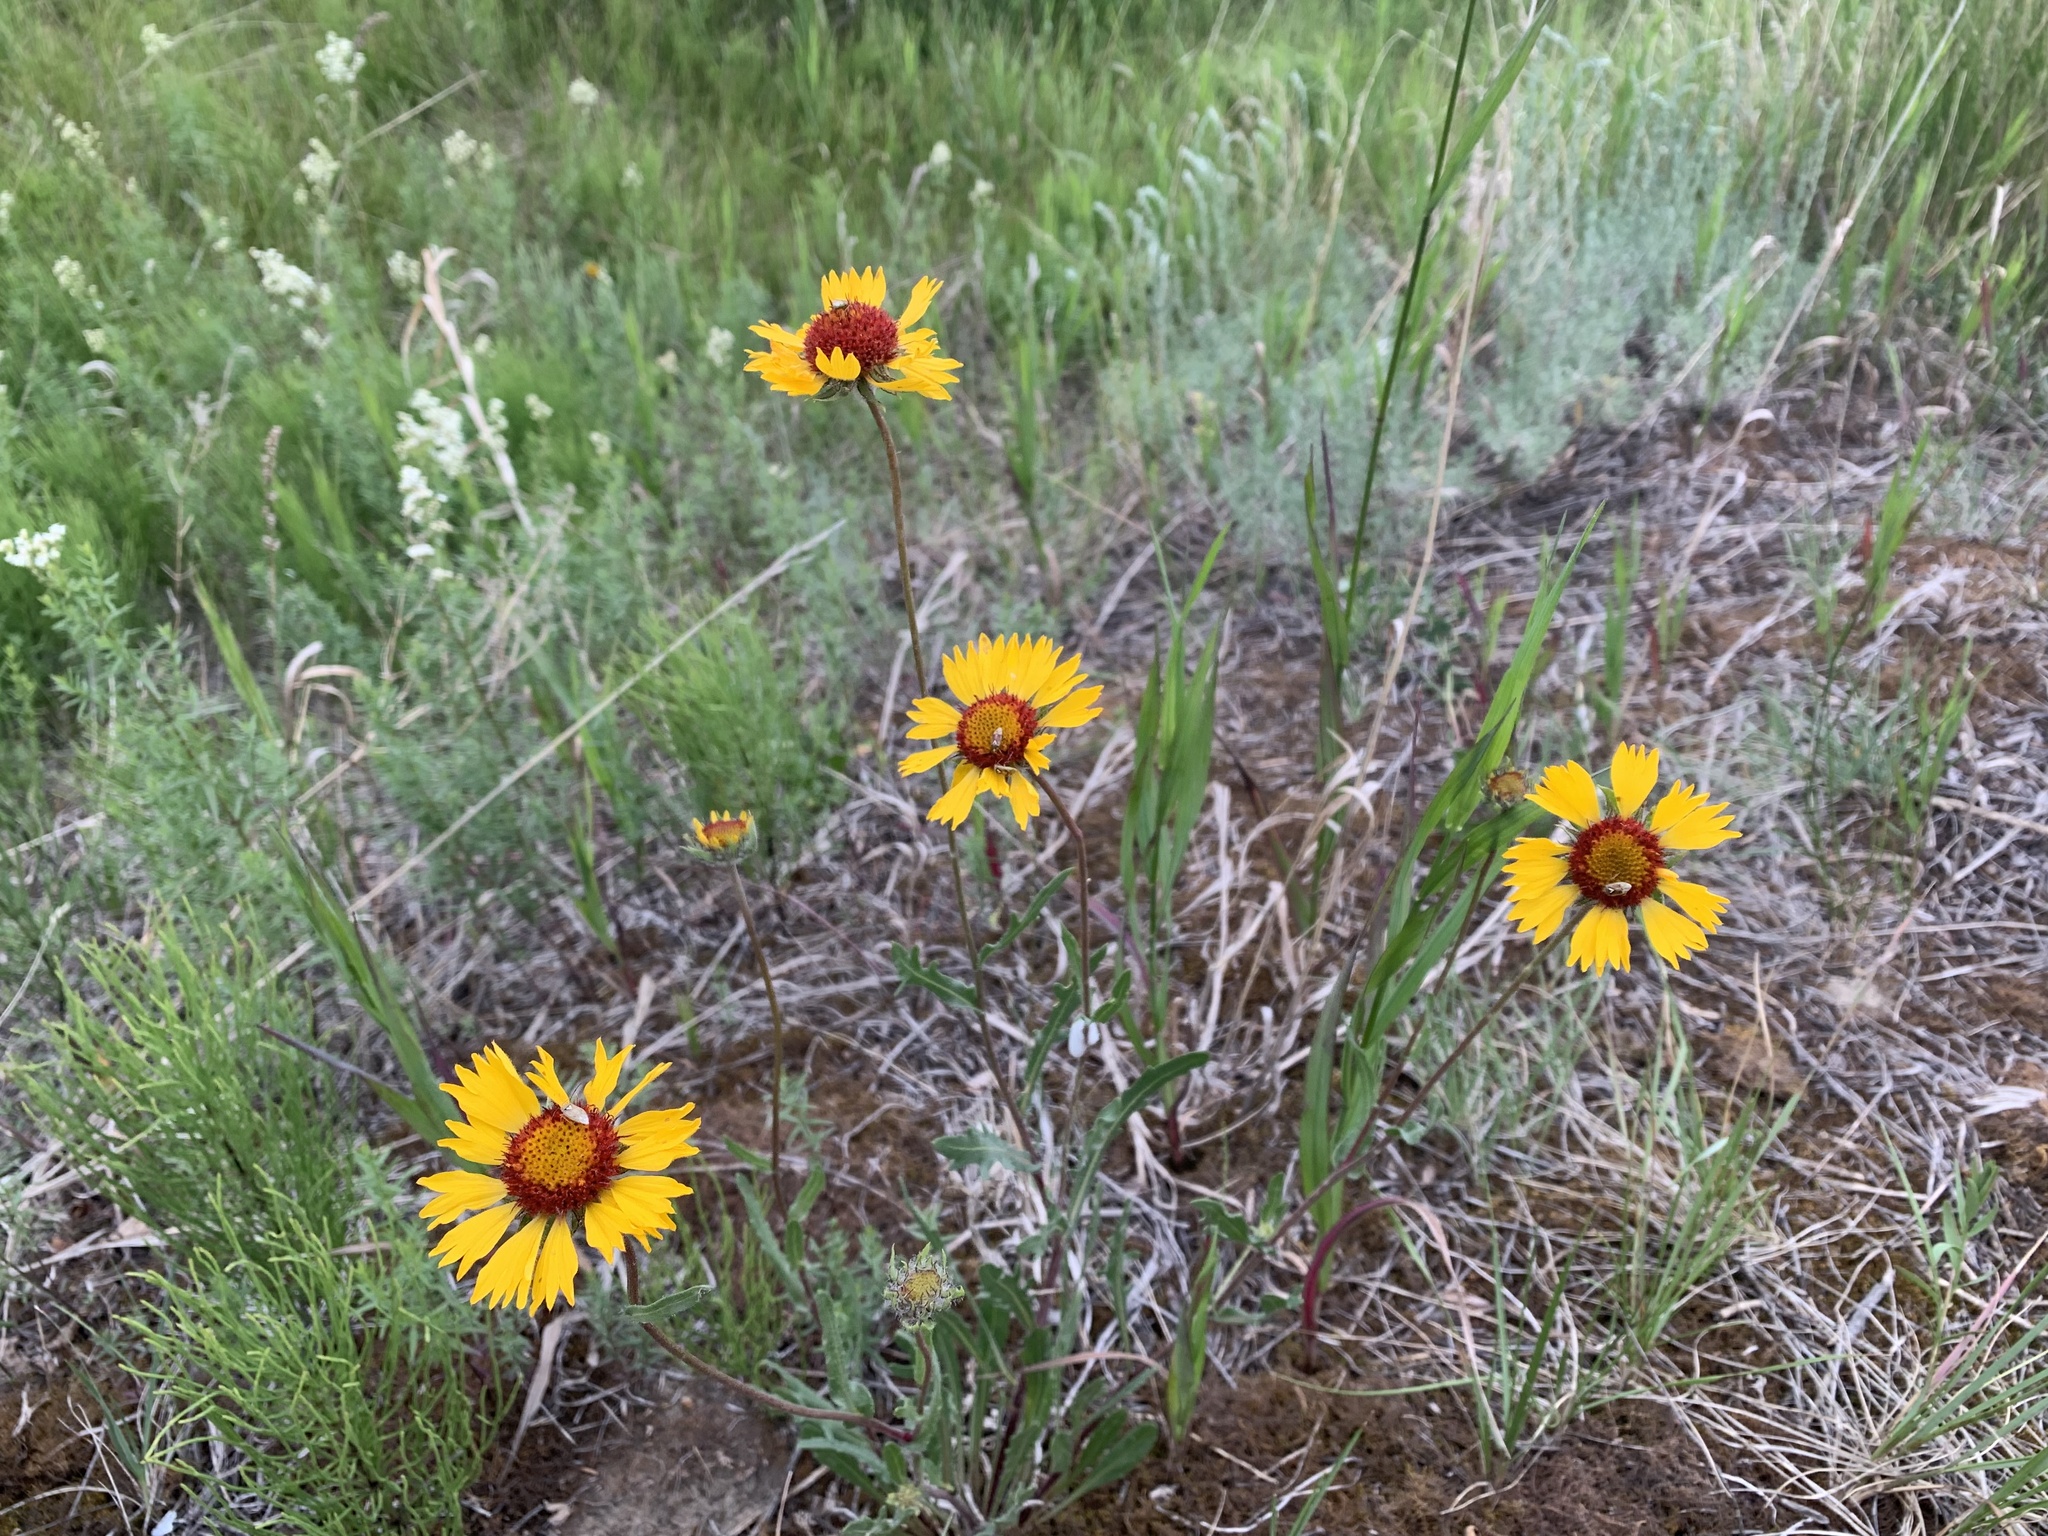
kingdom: Plantae
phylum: Tracheophyta
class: Magnoliopsida
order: Asterales
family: Asteraceae
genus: Gaillardia
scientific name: Gaillardia aristata
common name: Blanket-flower
